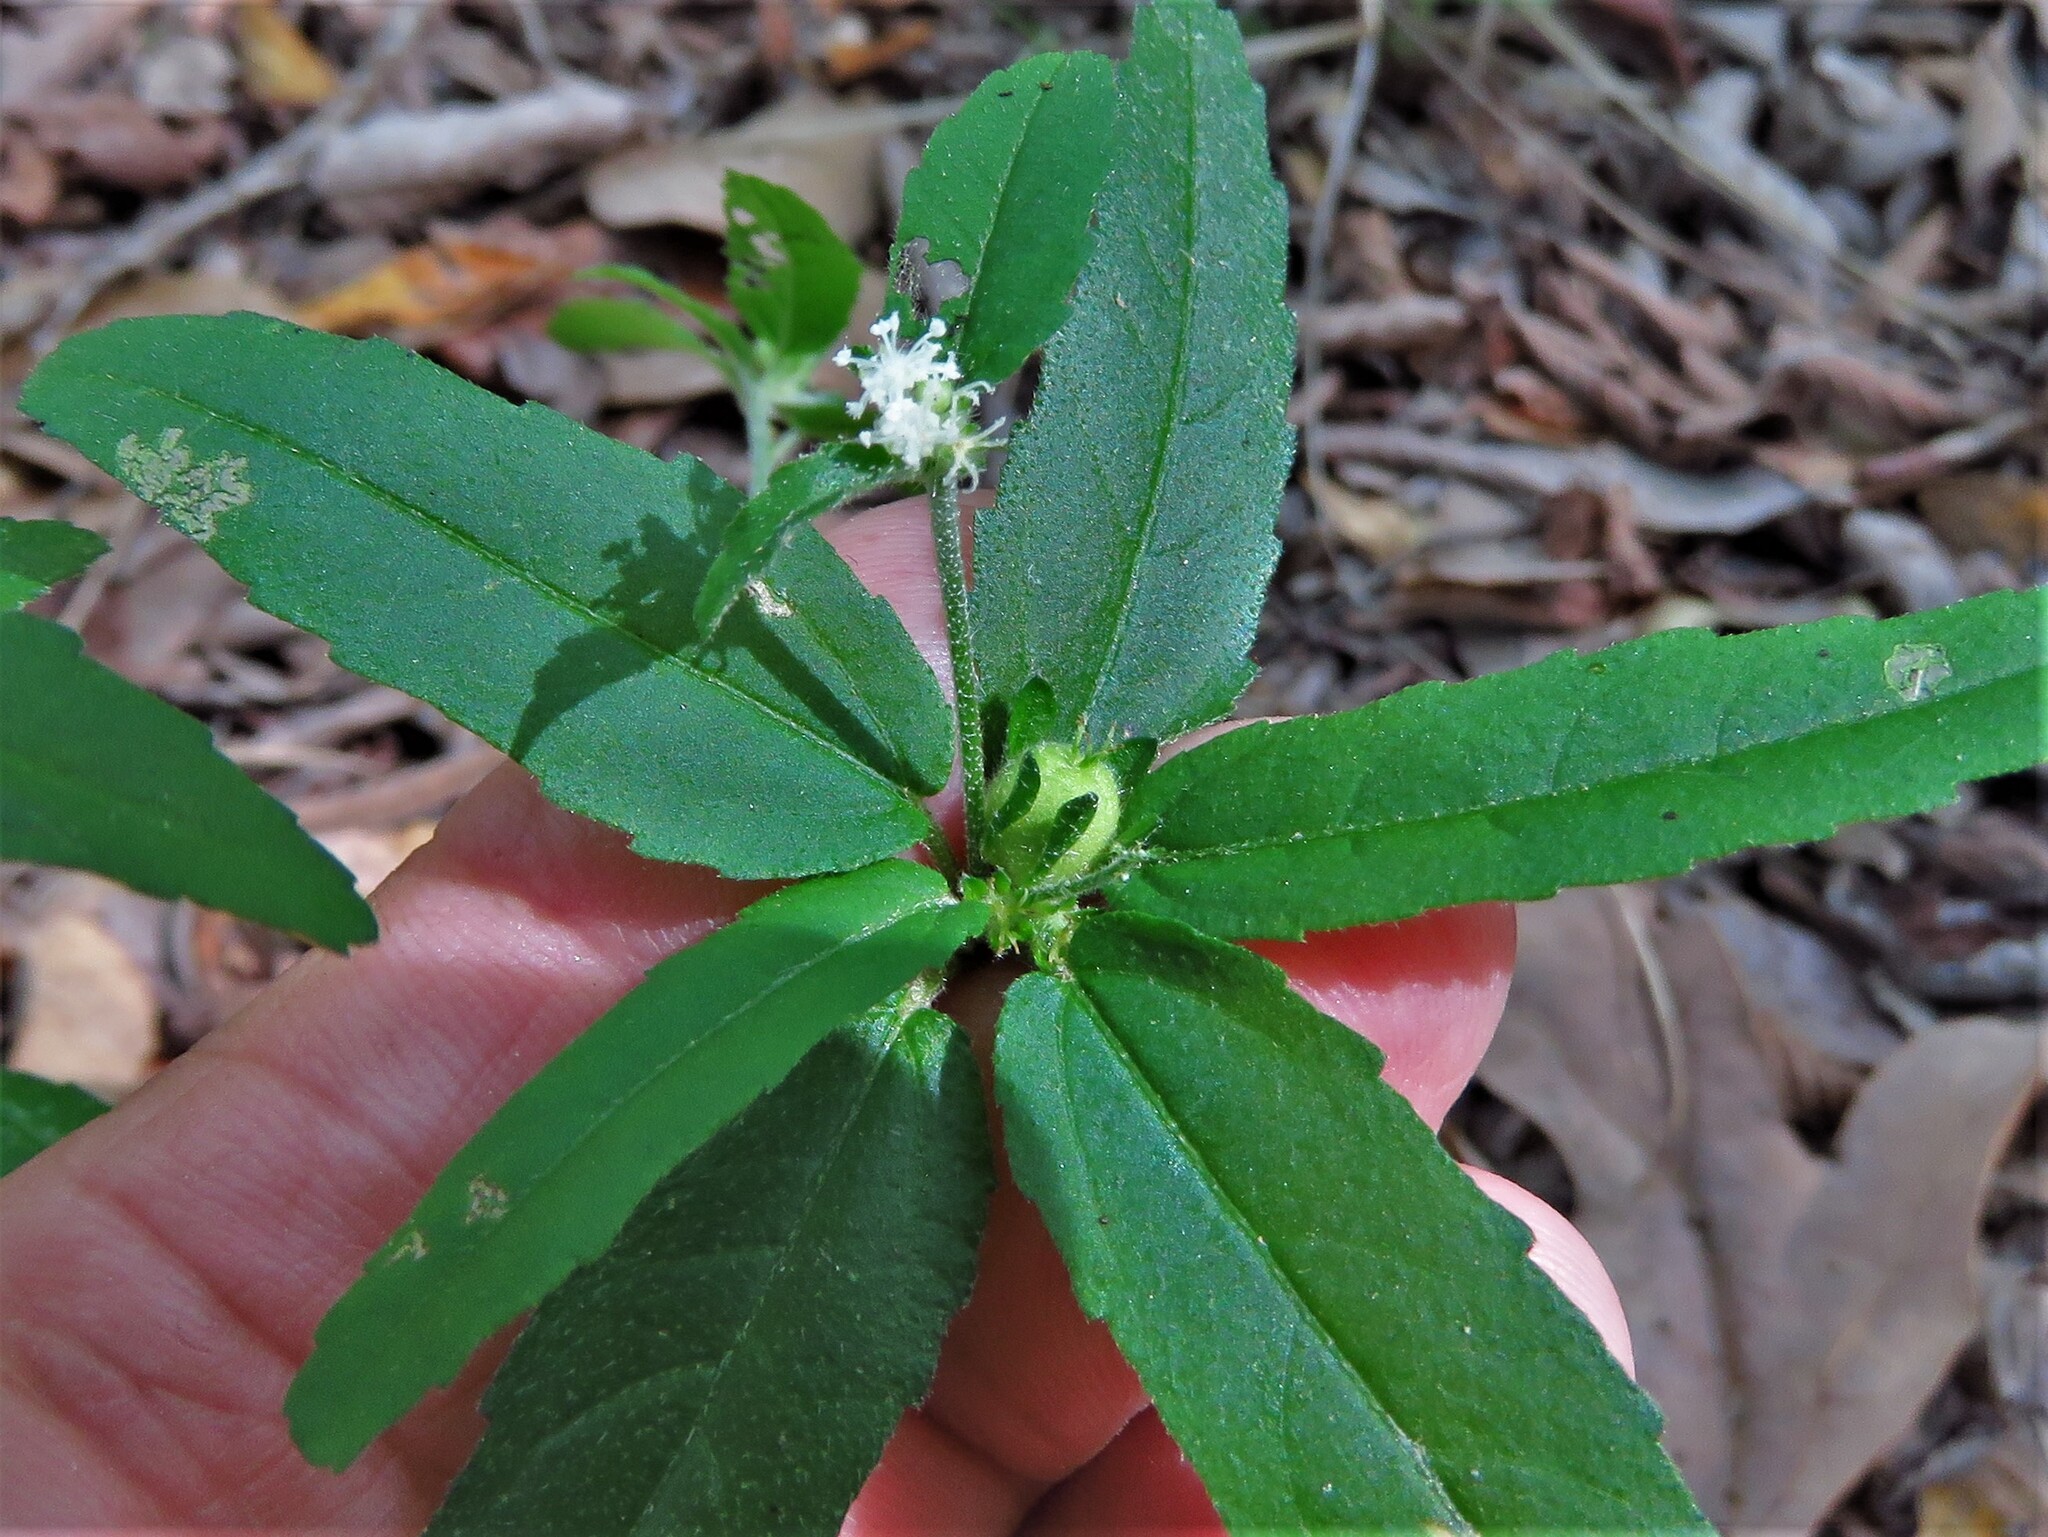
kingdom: Plantae
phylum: Tracheophyta
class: Magnoliopsida
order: Malpighiales
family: Euphorbiaceae
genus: Croton
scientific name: Croton glandulosus
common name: Tropic croton
